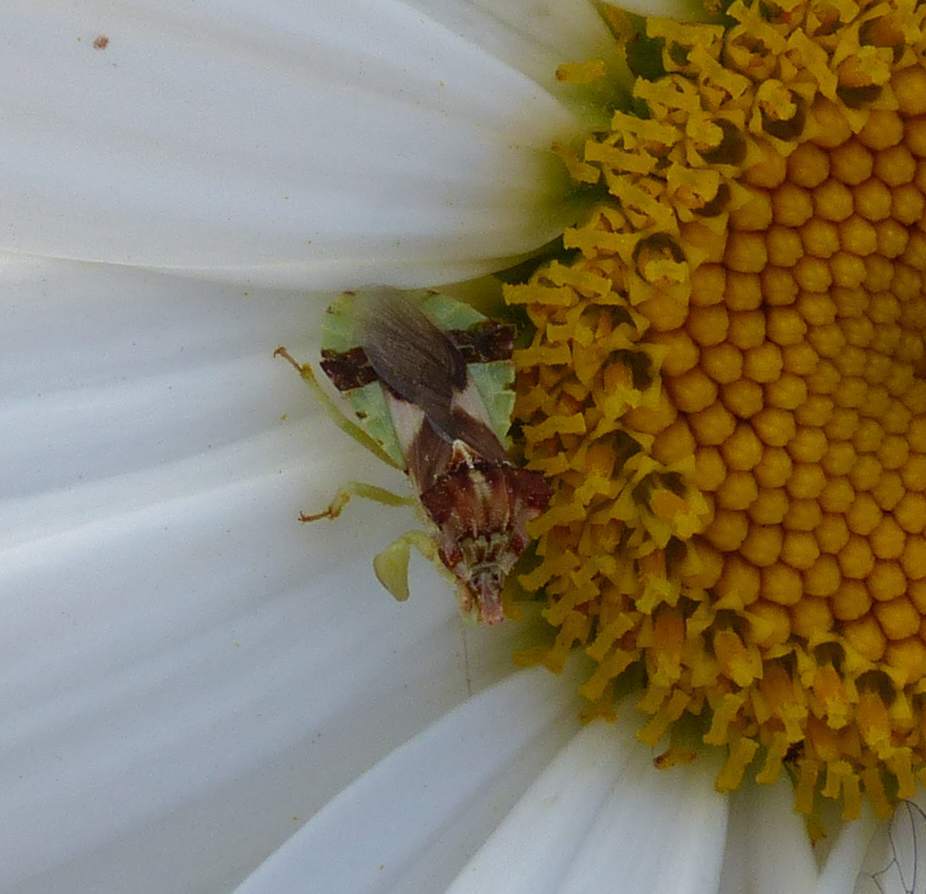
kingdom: Animalia
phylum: Arthropoda
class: Insecta
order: Hemiptera
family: Reduviidae
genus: Phymata
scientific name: Phymata americana
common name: Jagged ambush bug
